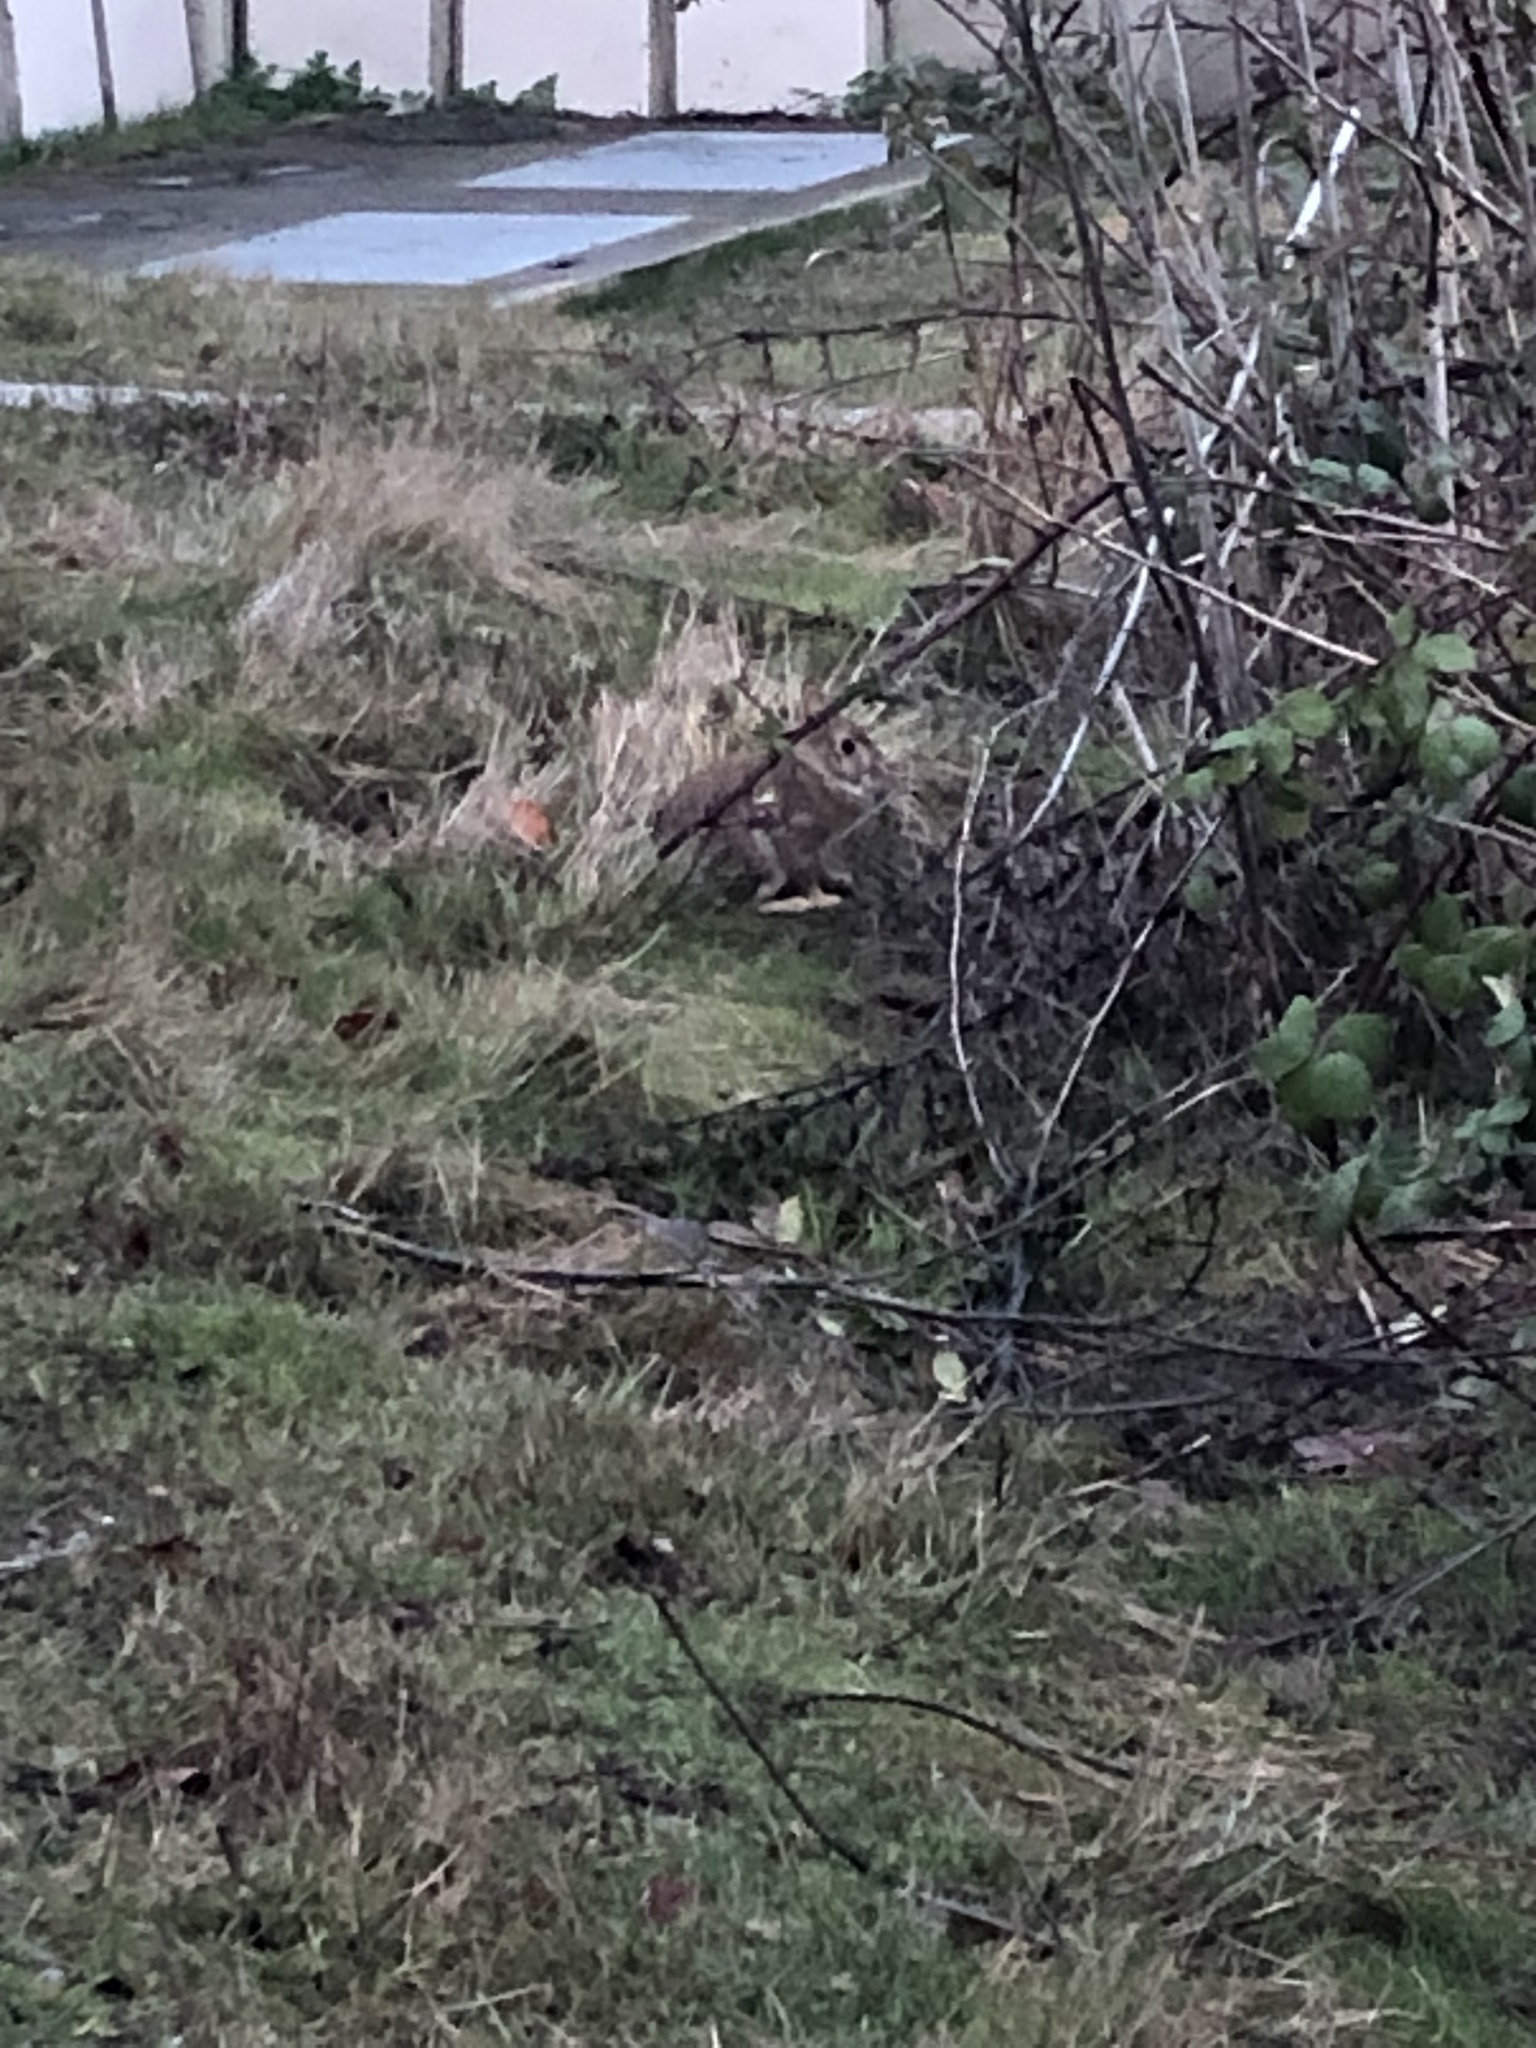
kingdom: Animalia
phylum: Chordata
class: Mammalia
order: Lagomorpha
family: Leporidae
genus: Sylvilagus
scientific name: Sylvilagus floridanus
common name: Eastern cottontail
